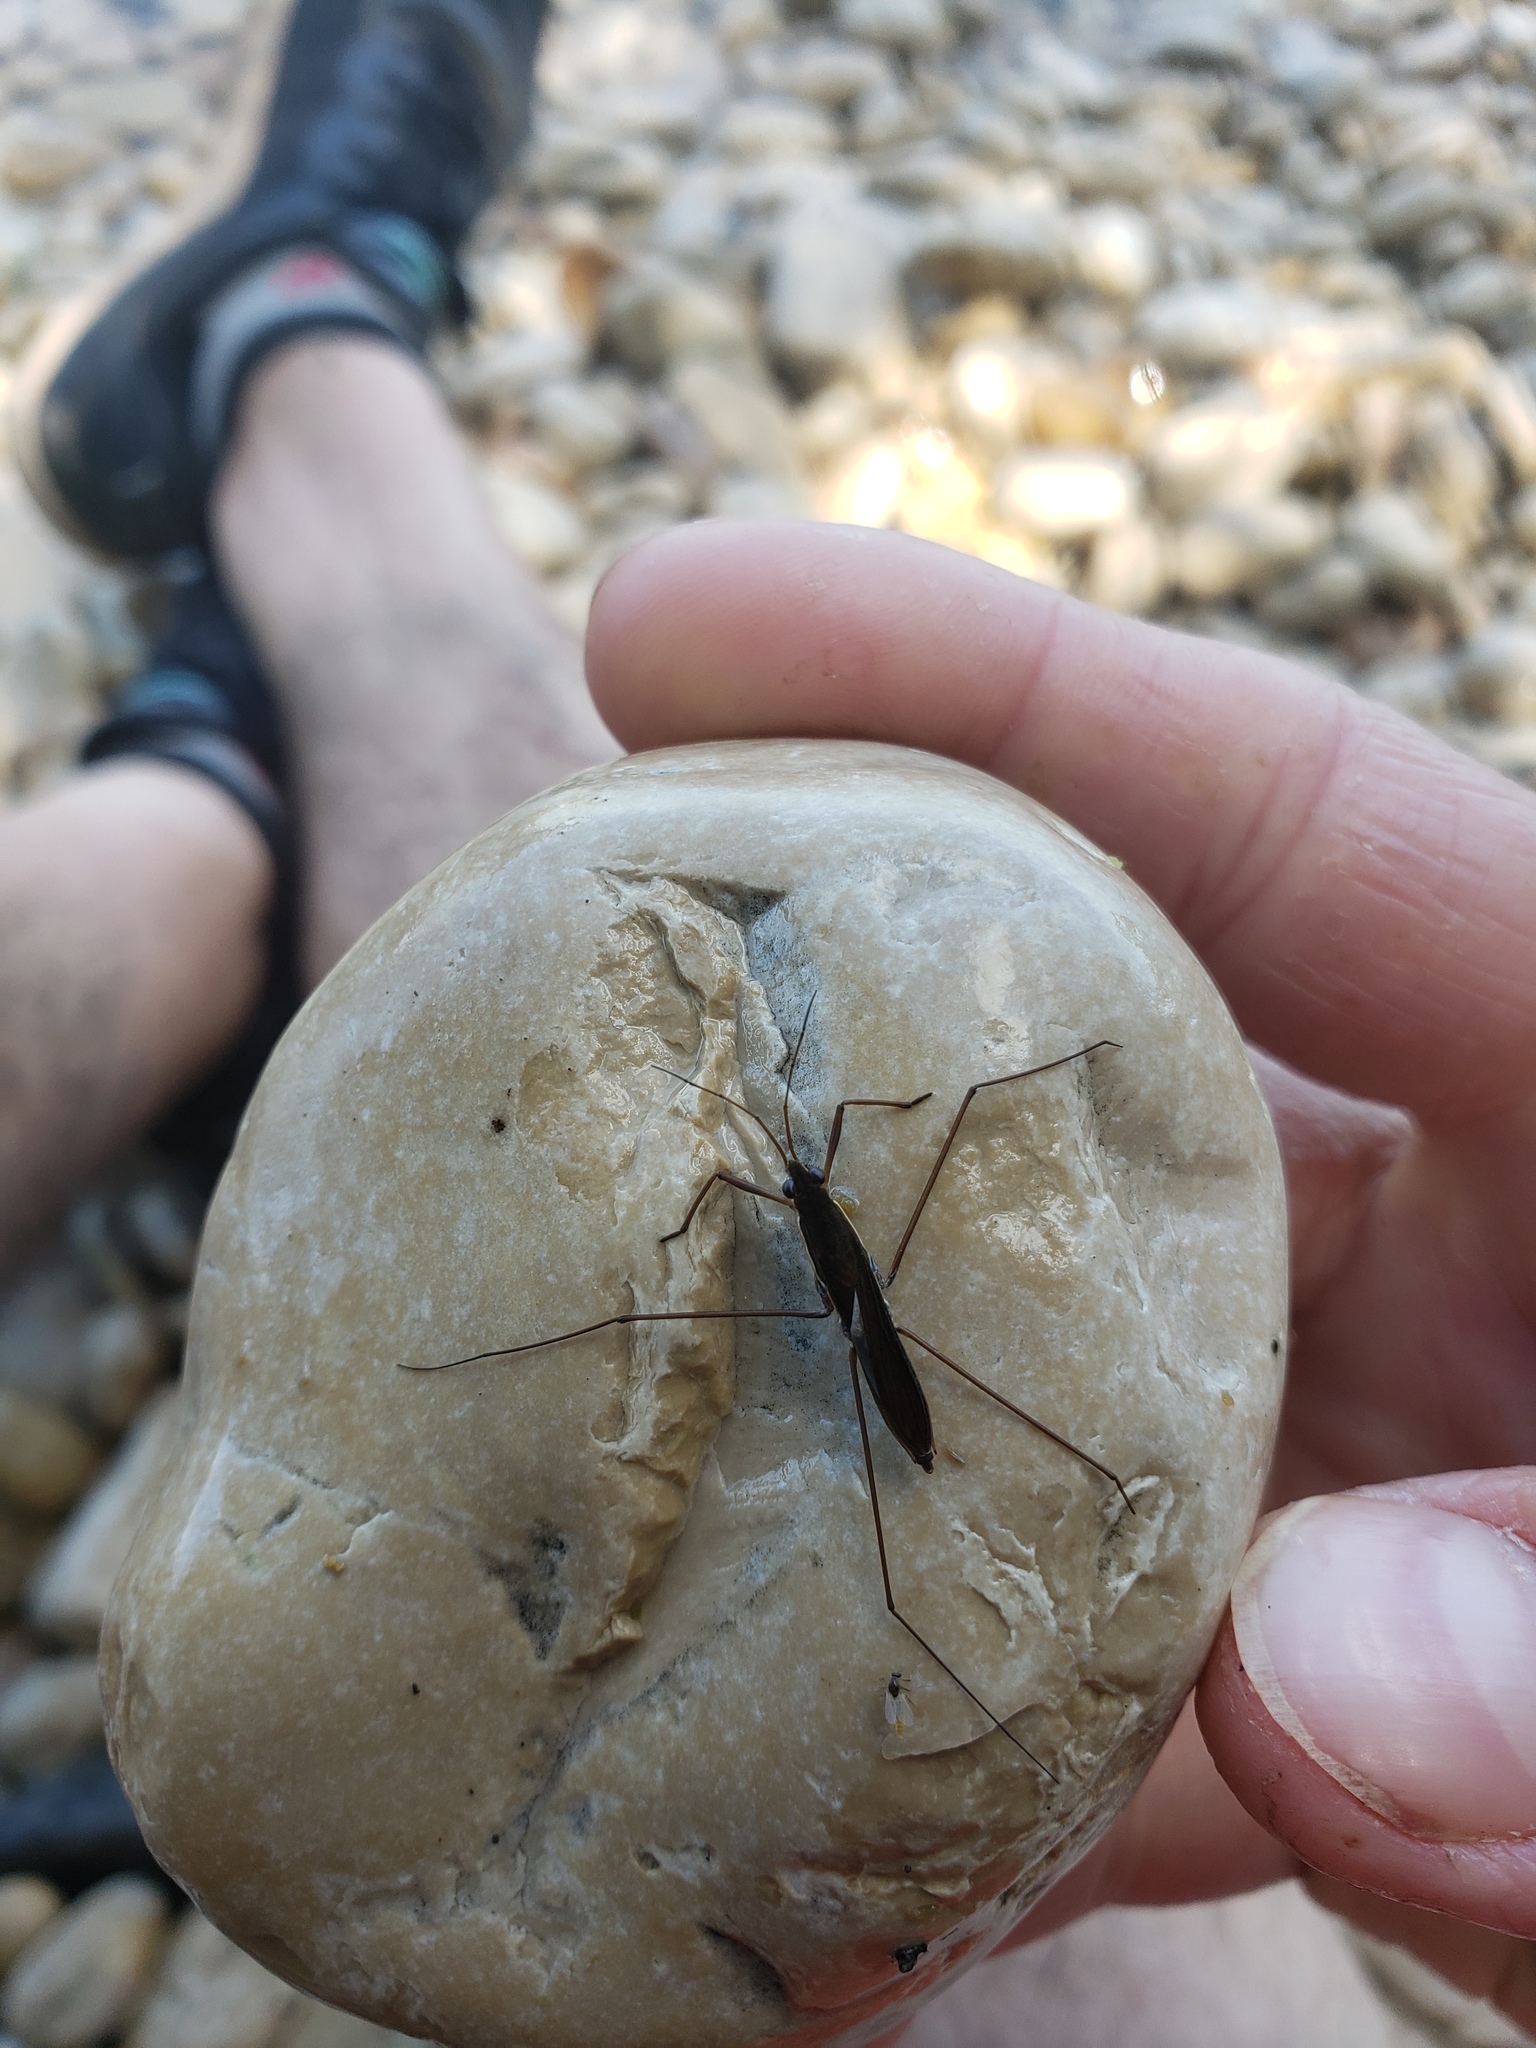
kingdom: Animalia
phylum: Arthropoda
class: Insecta
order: Hemiptera
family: Gerridae
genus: Limnoporus
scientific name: Limnoporus dissortis
